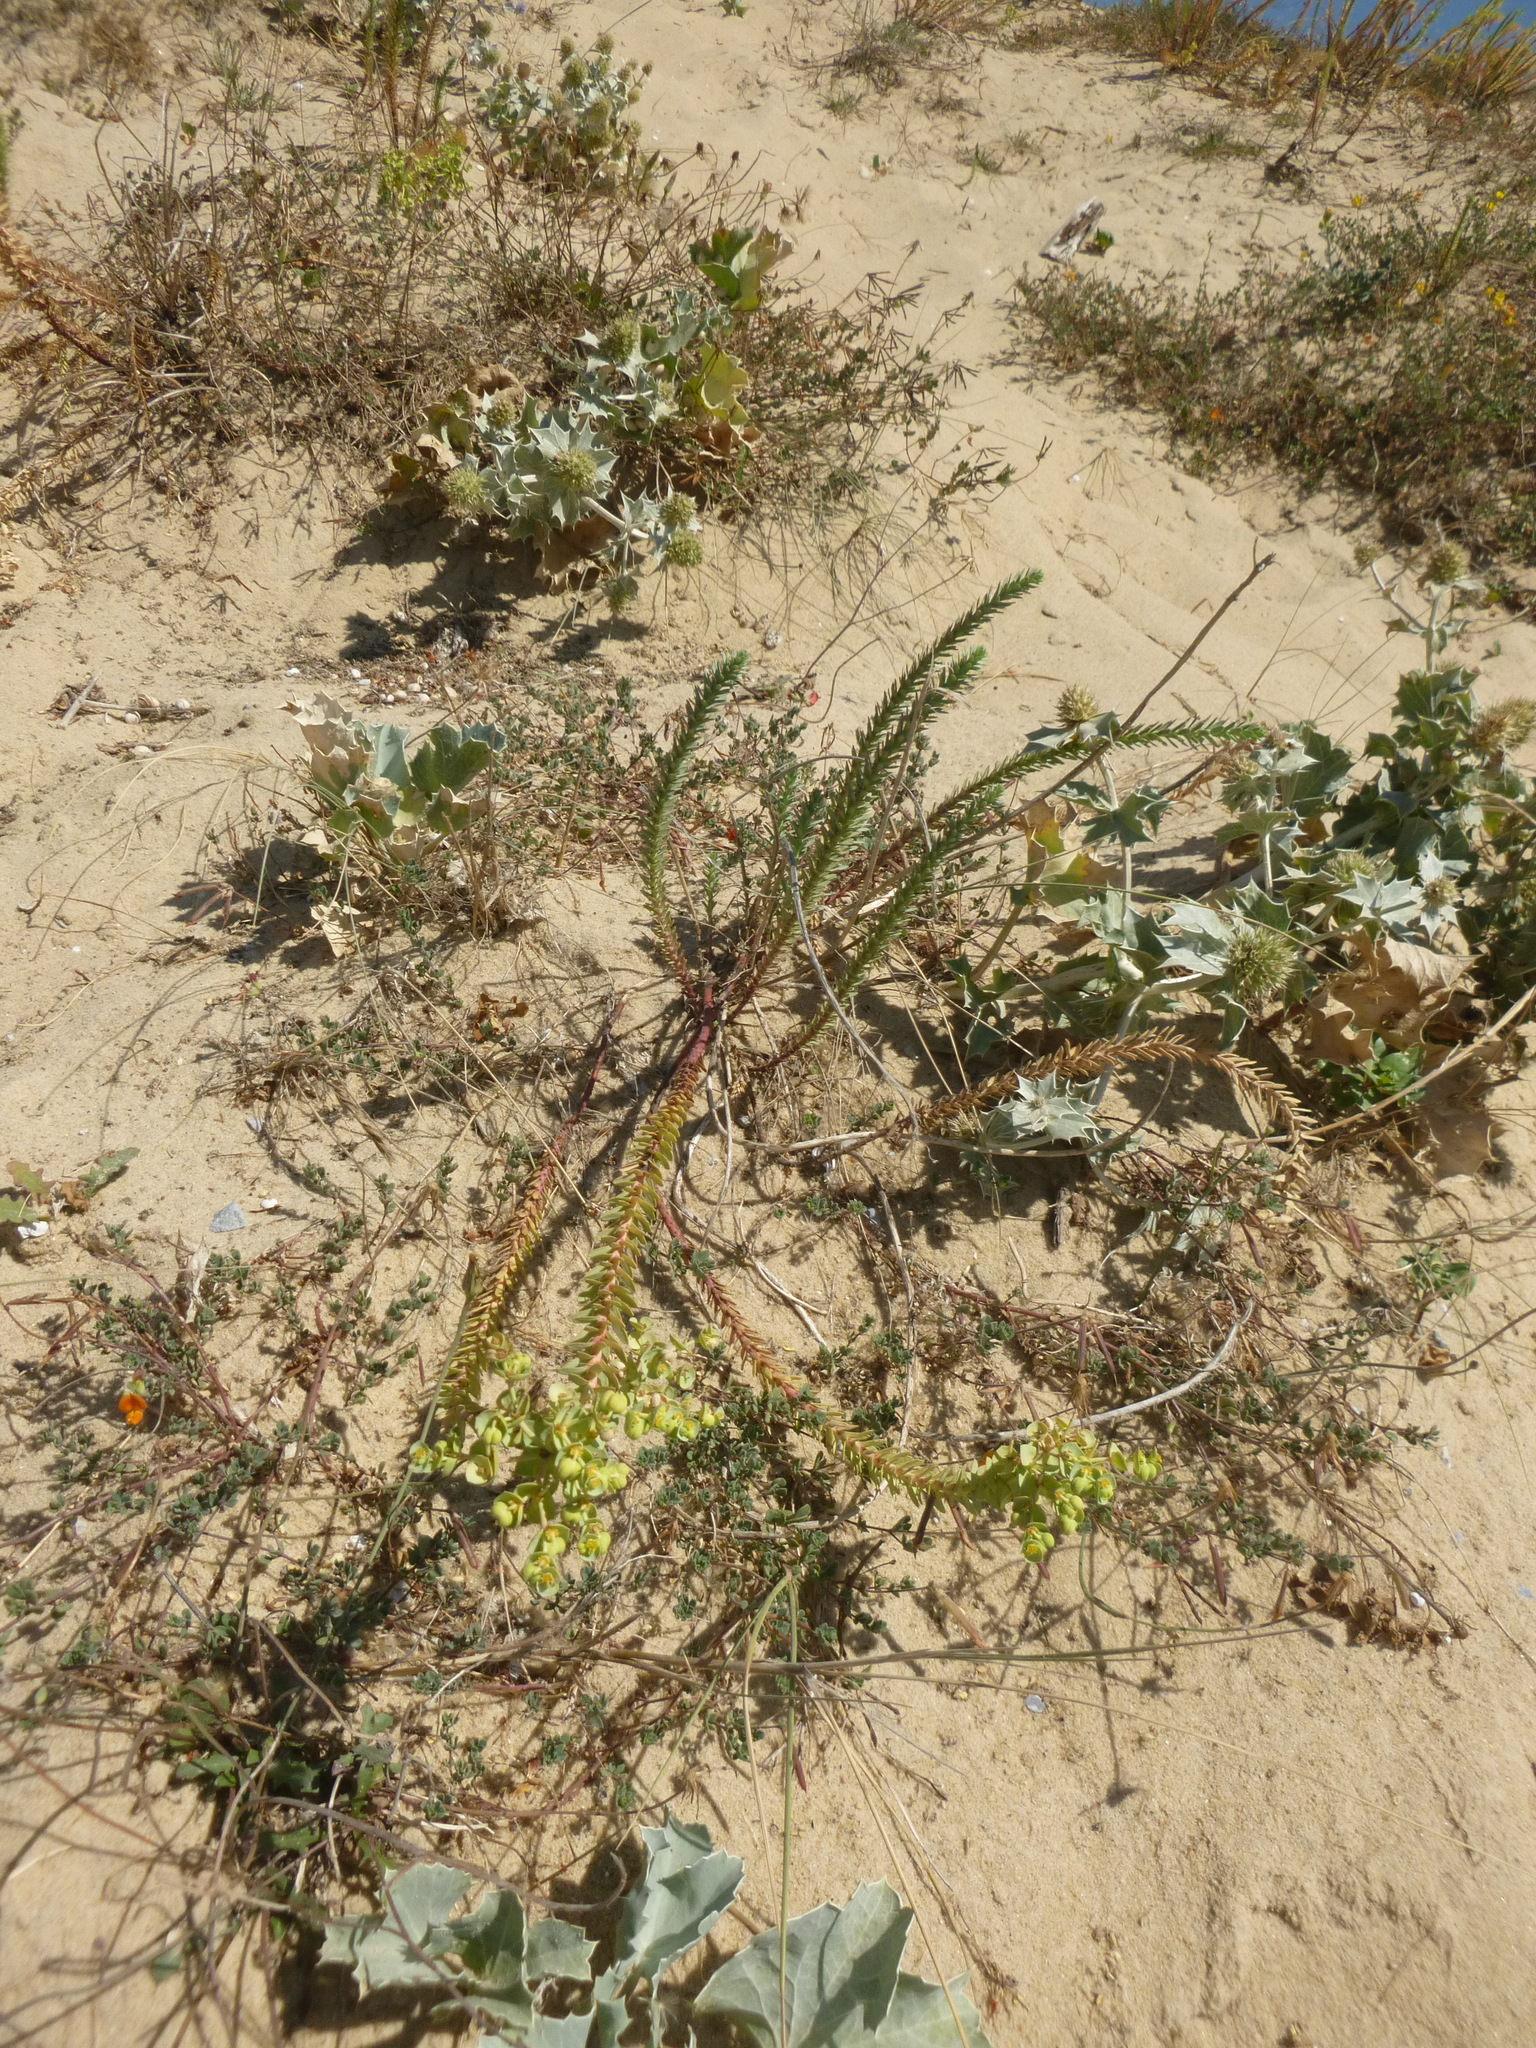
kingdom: Plantae
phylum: Tracheophyta
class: Magnoliopsida
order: Malpighiales
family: Euphorbiaceae
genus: Euphorbia
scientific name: Euphorbia paralias
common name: Sea spurge
